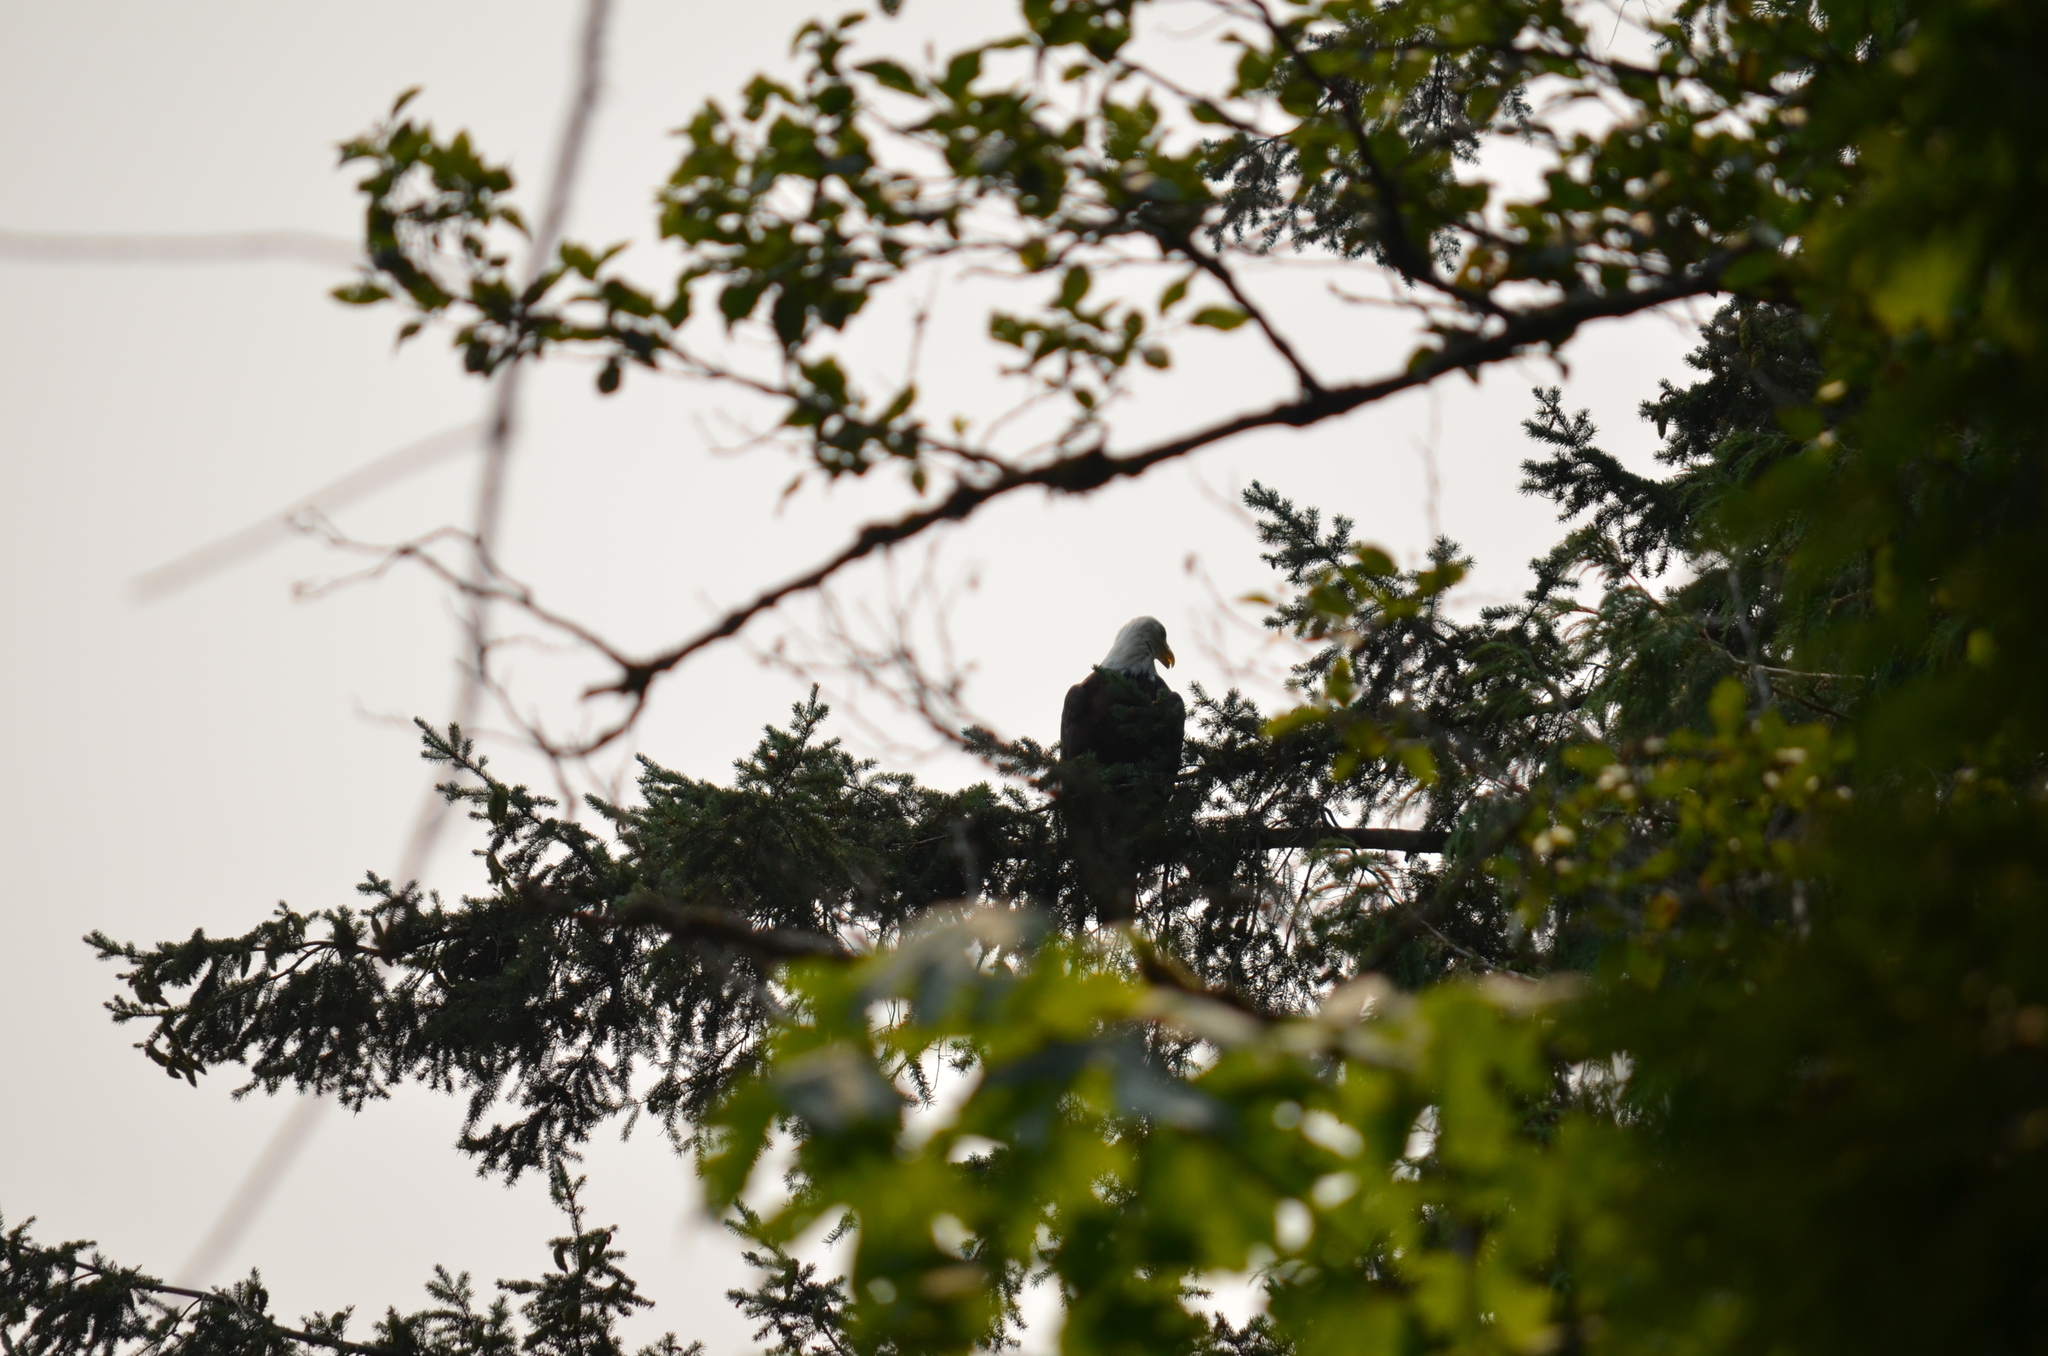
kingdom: Animalia
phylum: Chordata
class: Aves
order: Accipitriformes
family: Accipitridae
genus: Haliaeetus
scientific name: Haliaeetus leucocephalus
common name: Bald eagle
